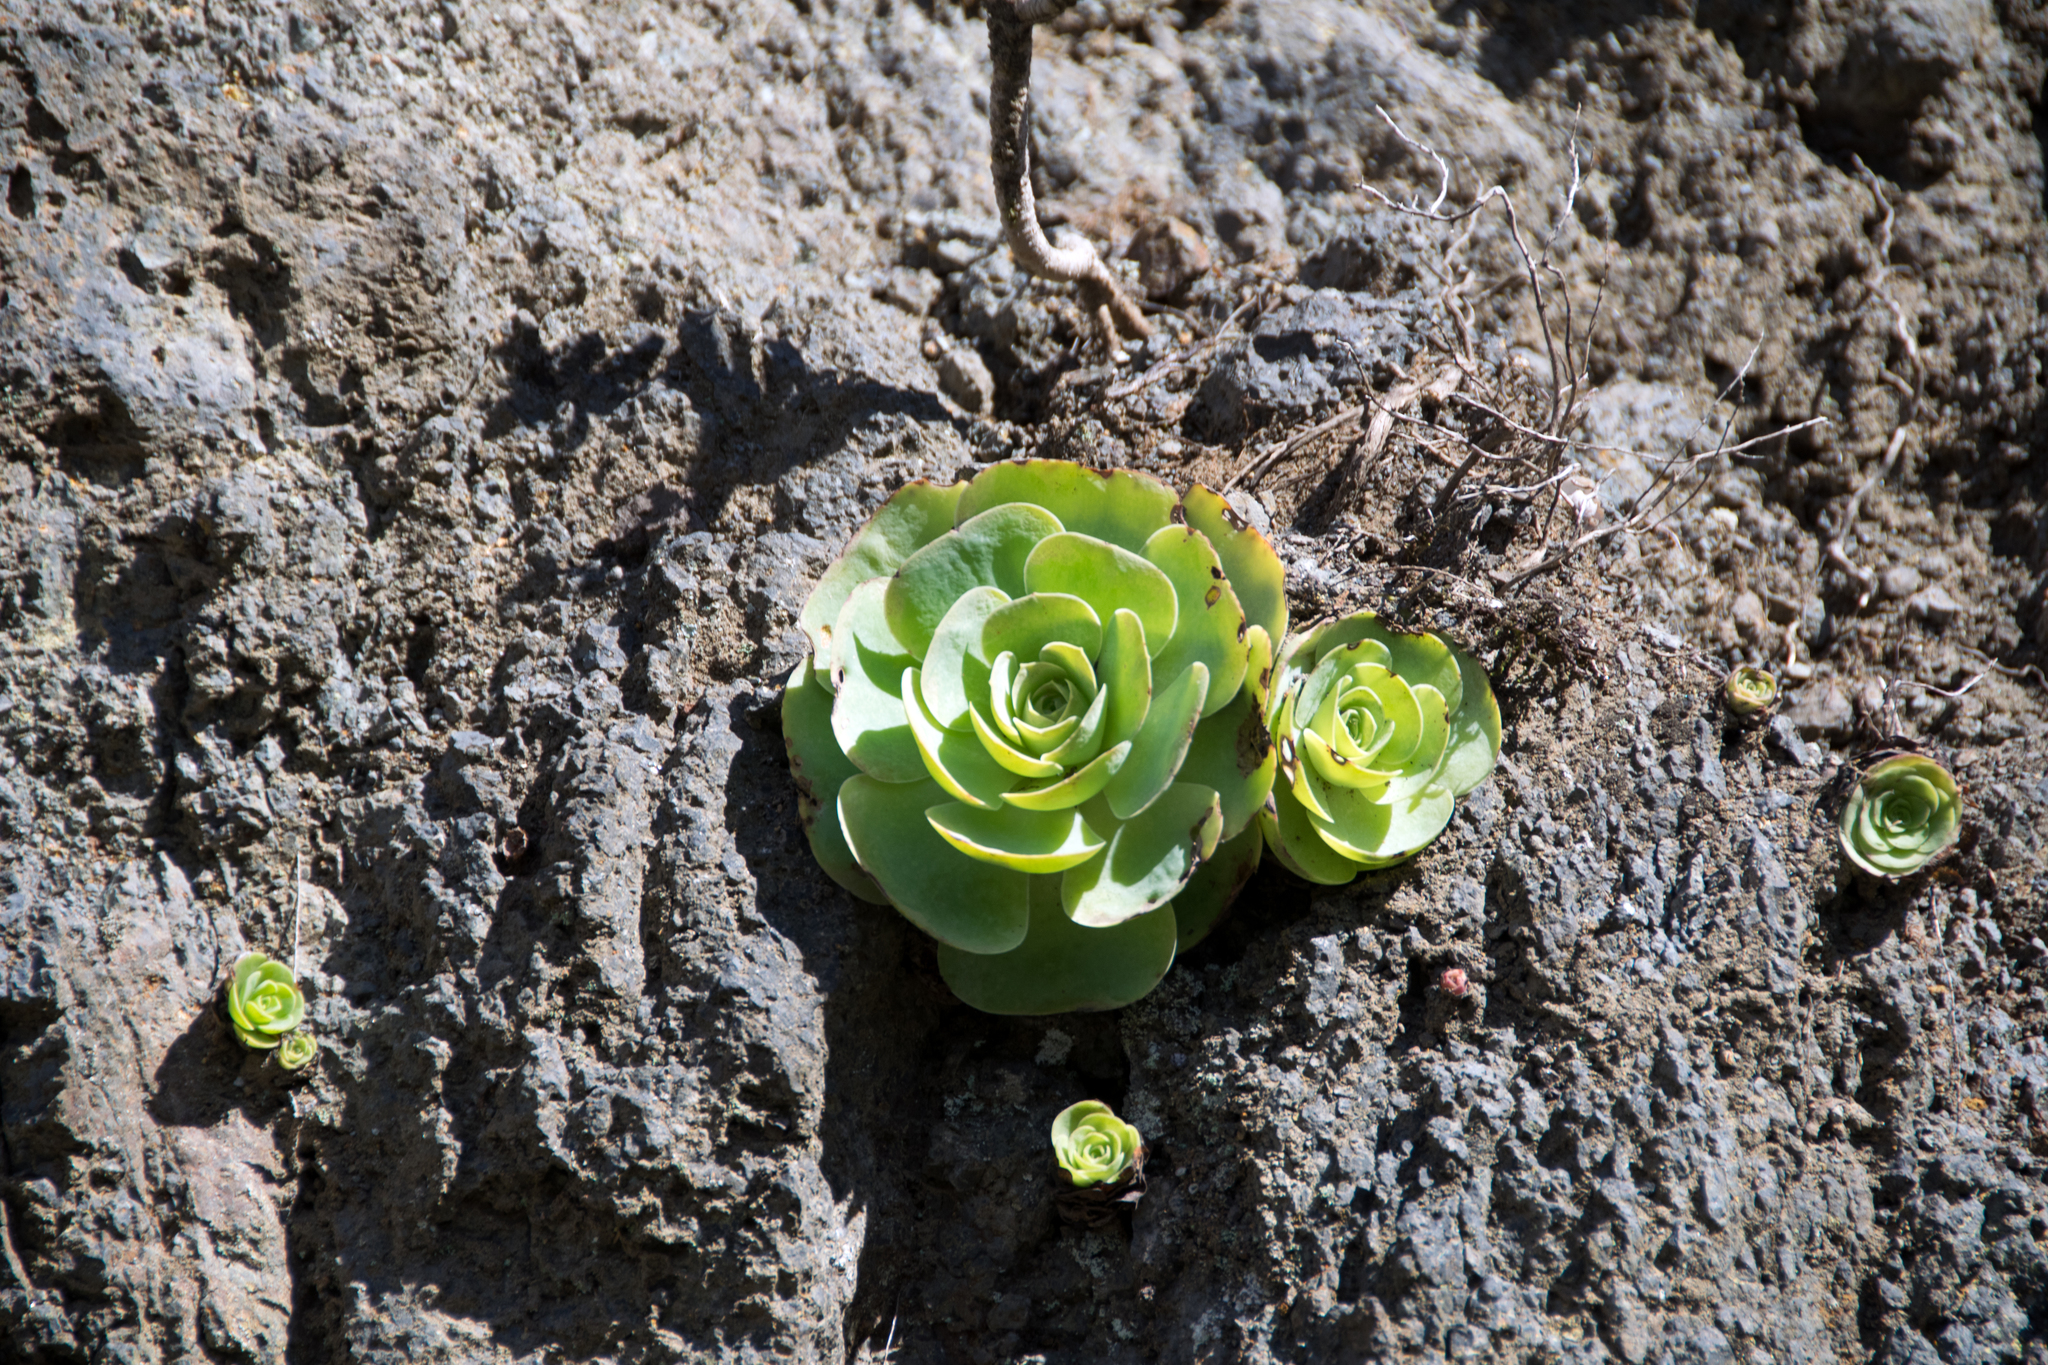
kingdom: Plantae
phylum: Tracheophyta
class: Magnoliopsida
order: Saxifragales
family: Crassulaceae
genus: Aeonium
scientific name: Aeonium diplocyclum
